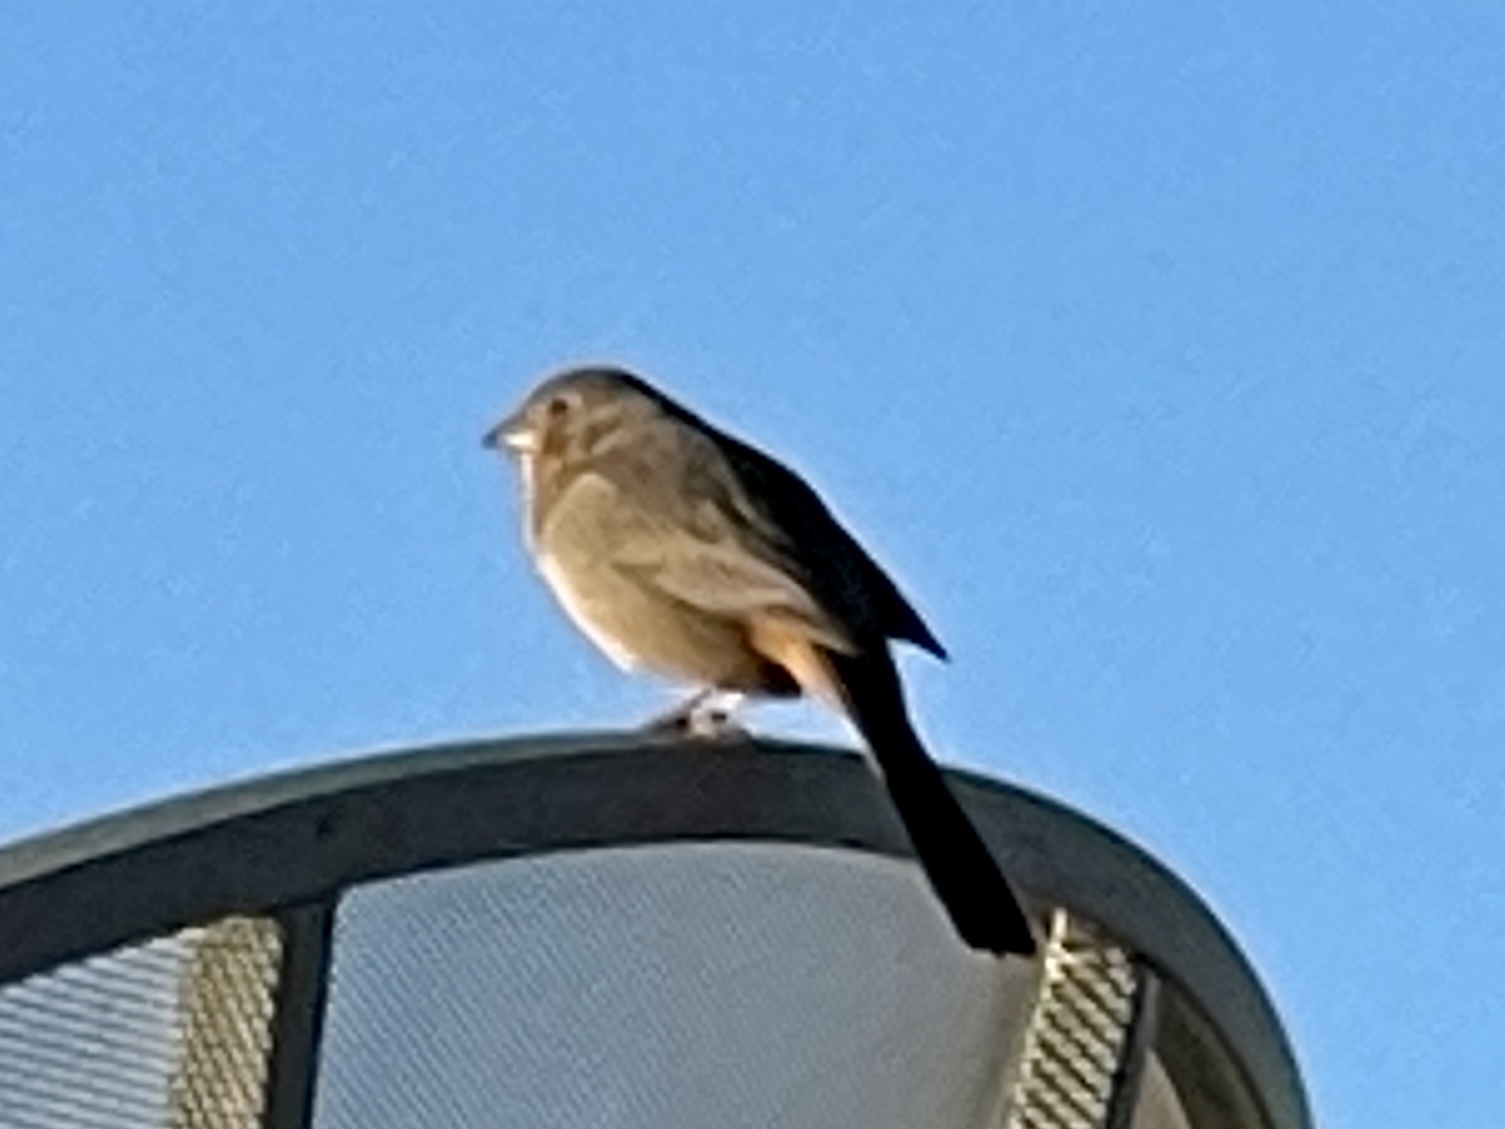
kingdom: Animalia
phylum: Chordata
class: Aves
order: Passeriformes
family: Passerellidae
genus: Melozone
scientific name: Melozone fusca
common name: Canyon towhee
